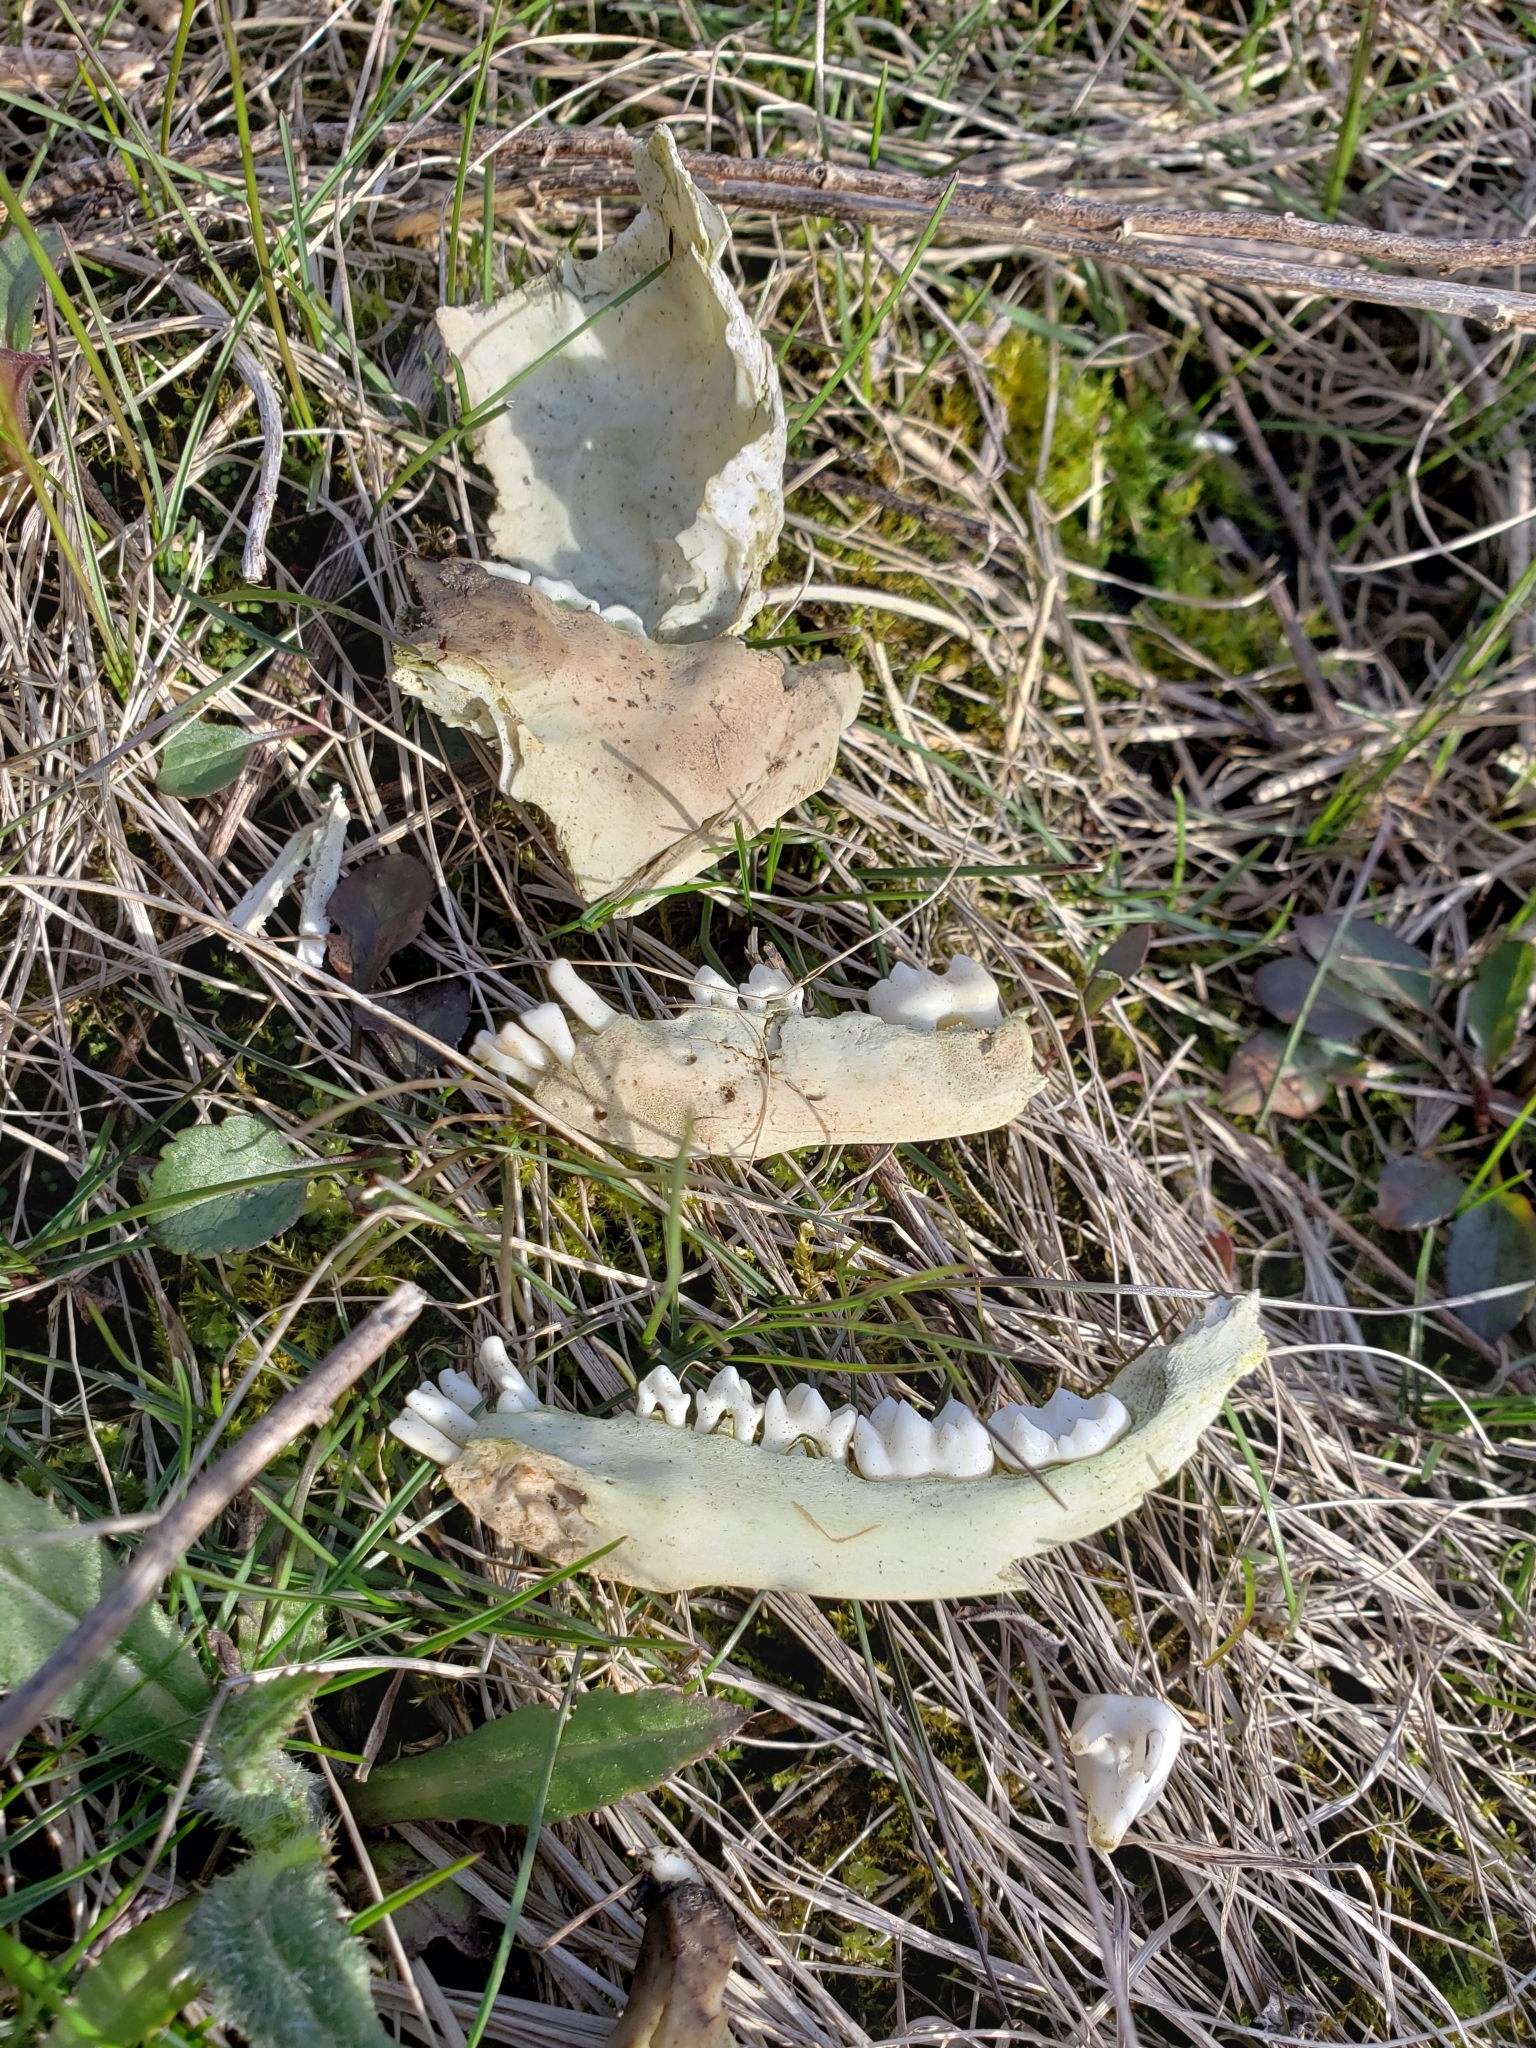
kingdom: Animalia
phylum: Chordata
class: Mammalia
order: Carnivora
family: Procyonidae
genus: Procyon
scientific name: Procyon lotor
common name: Raccoon
